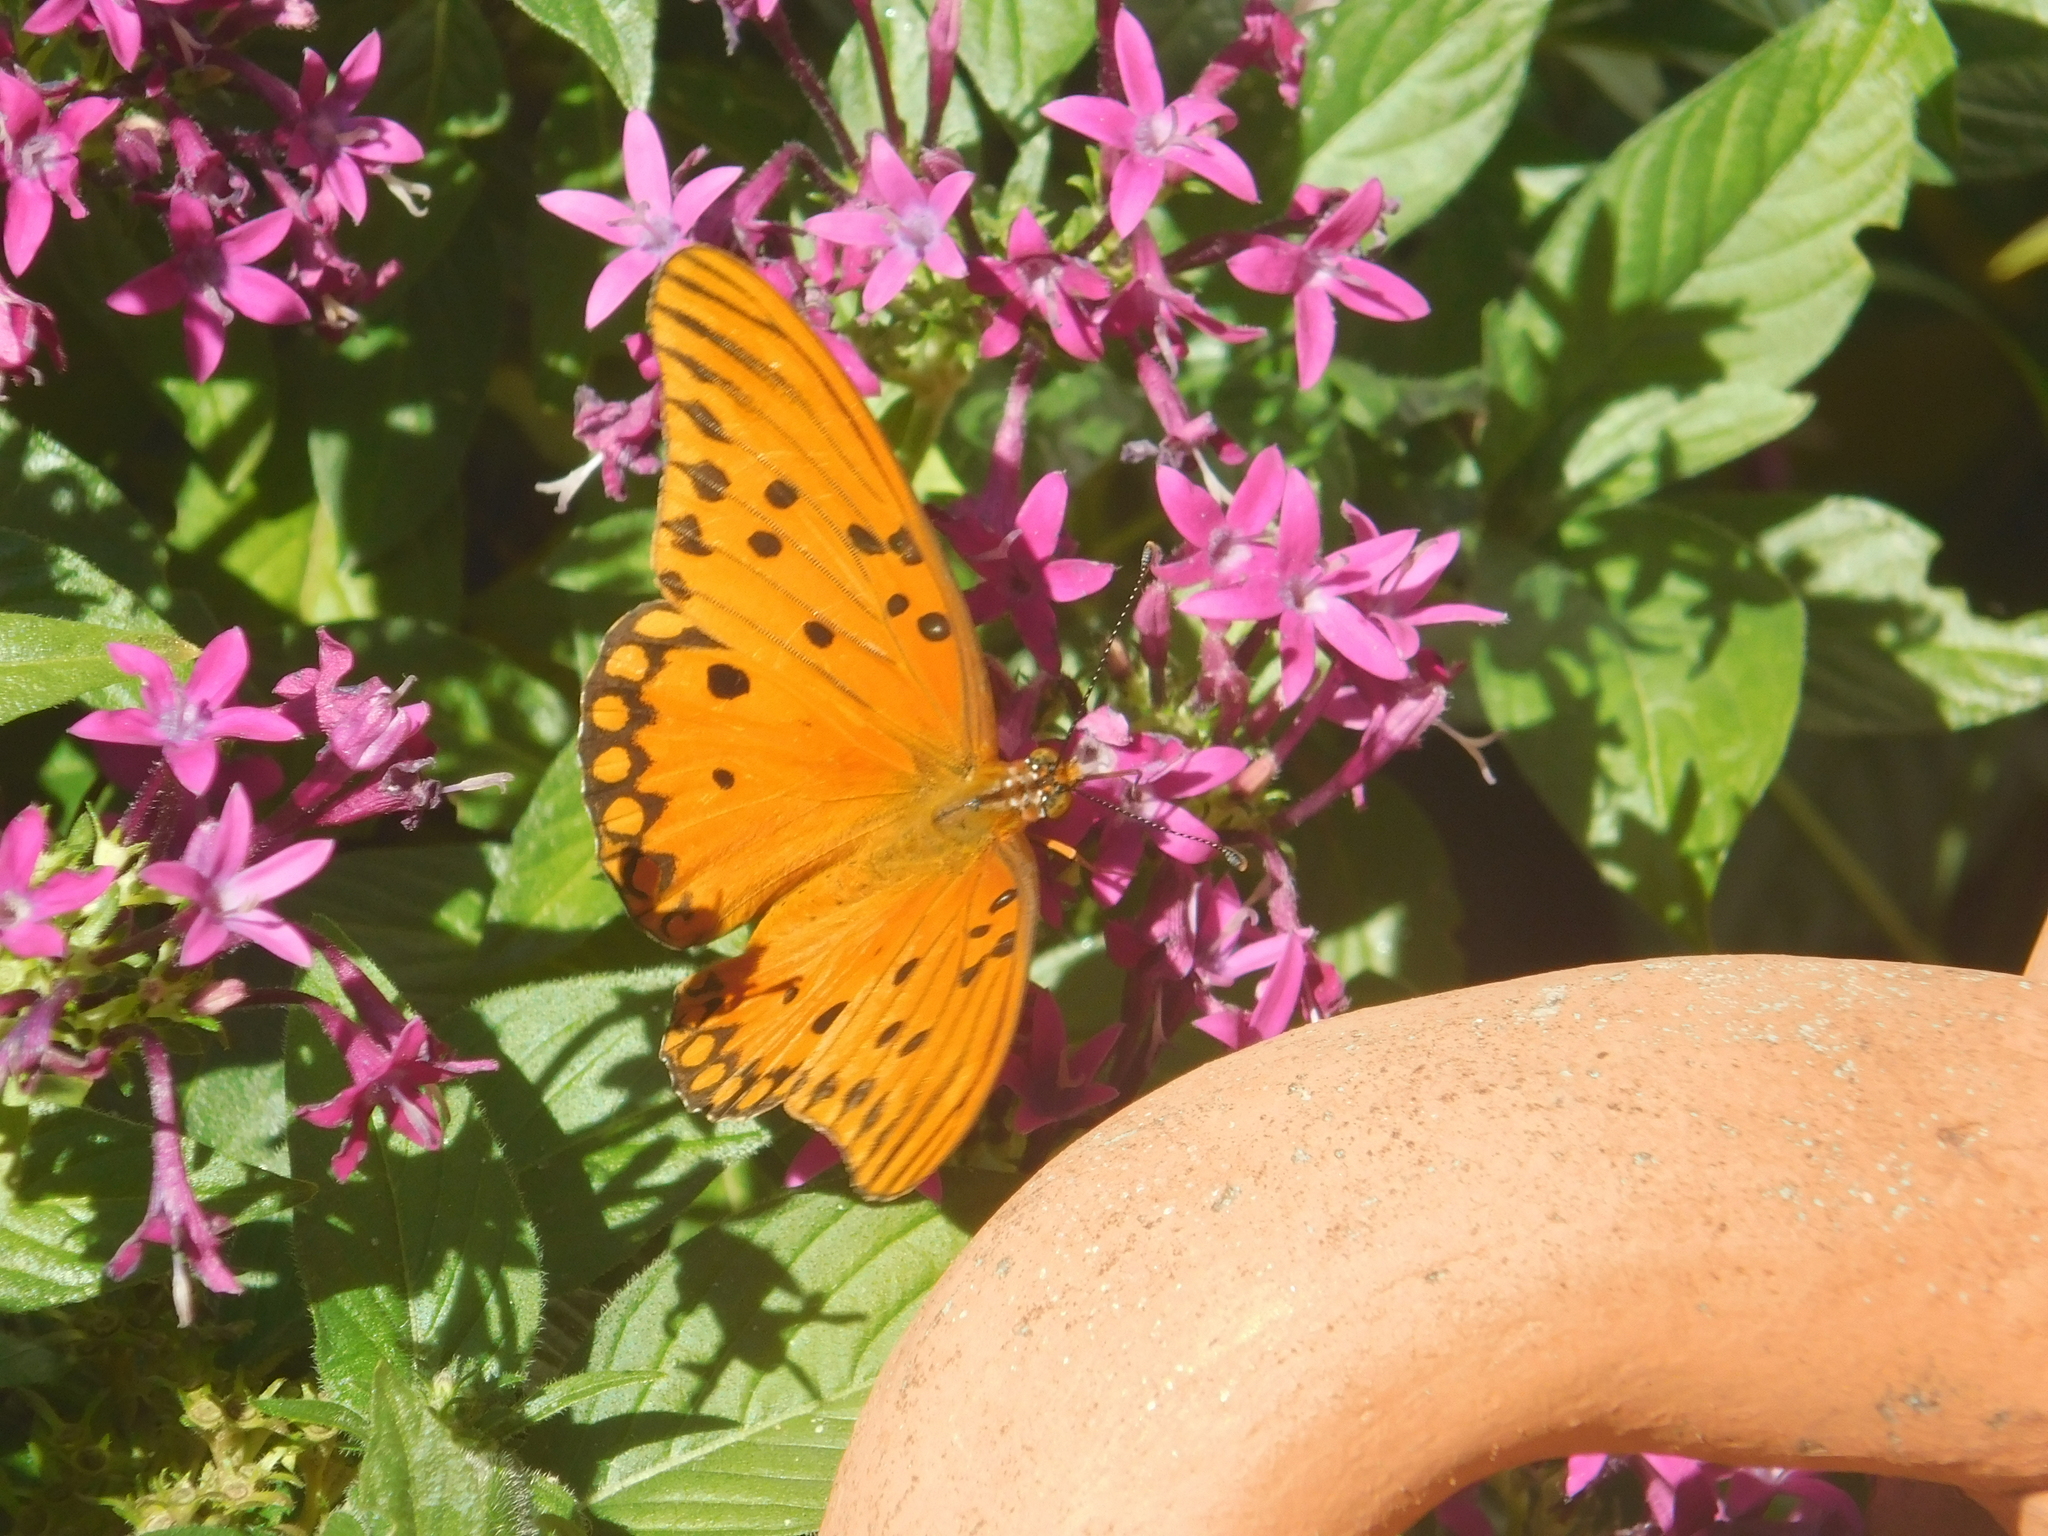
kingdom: Animalia
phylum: Arthropoda
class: Insecta
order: Lepidoptera
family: Nymphalidae
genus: Dione
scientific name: Dione vanillae
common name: Gulf fritillary
